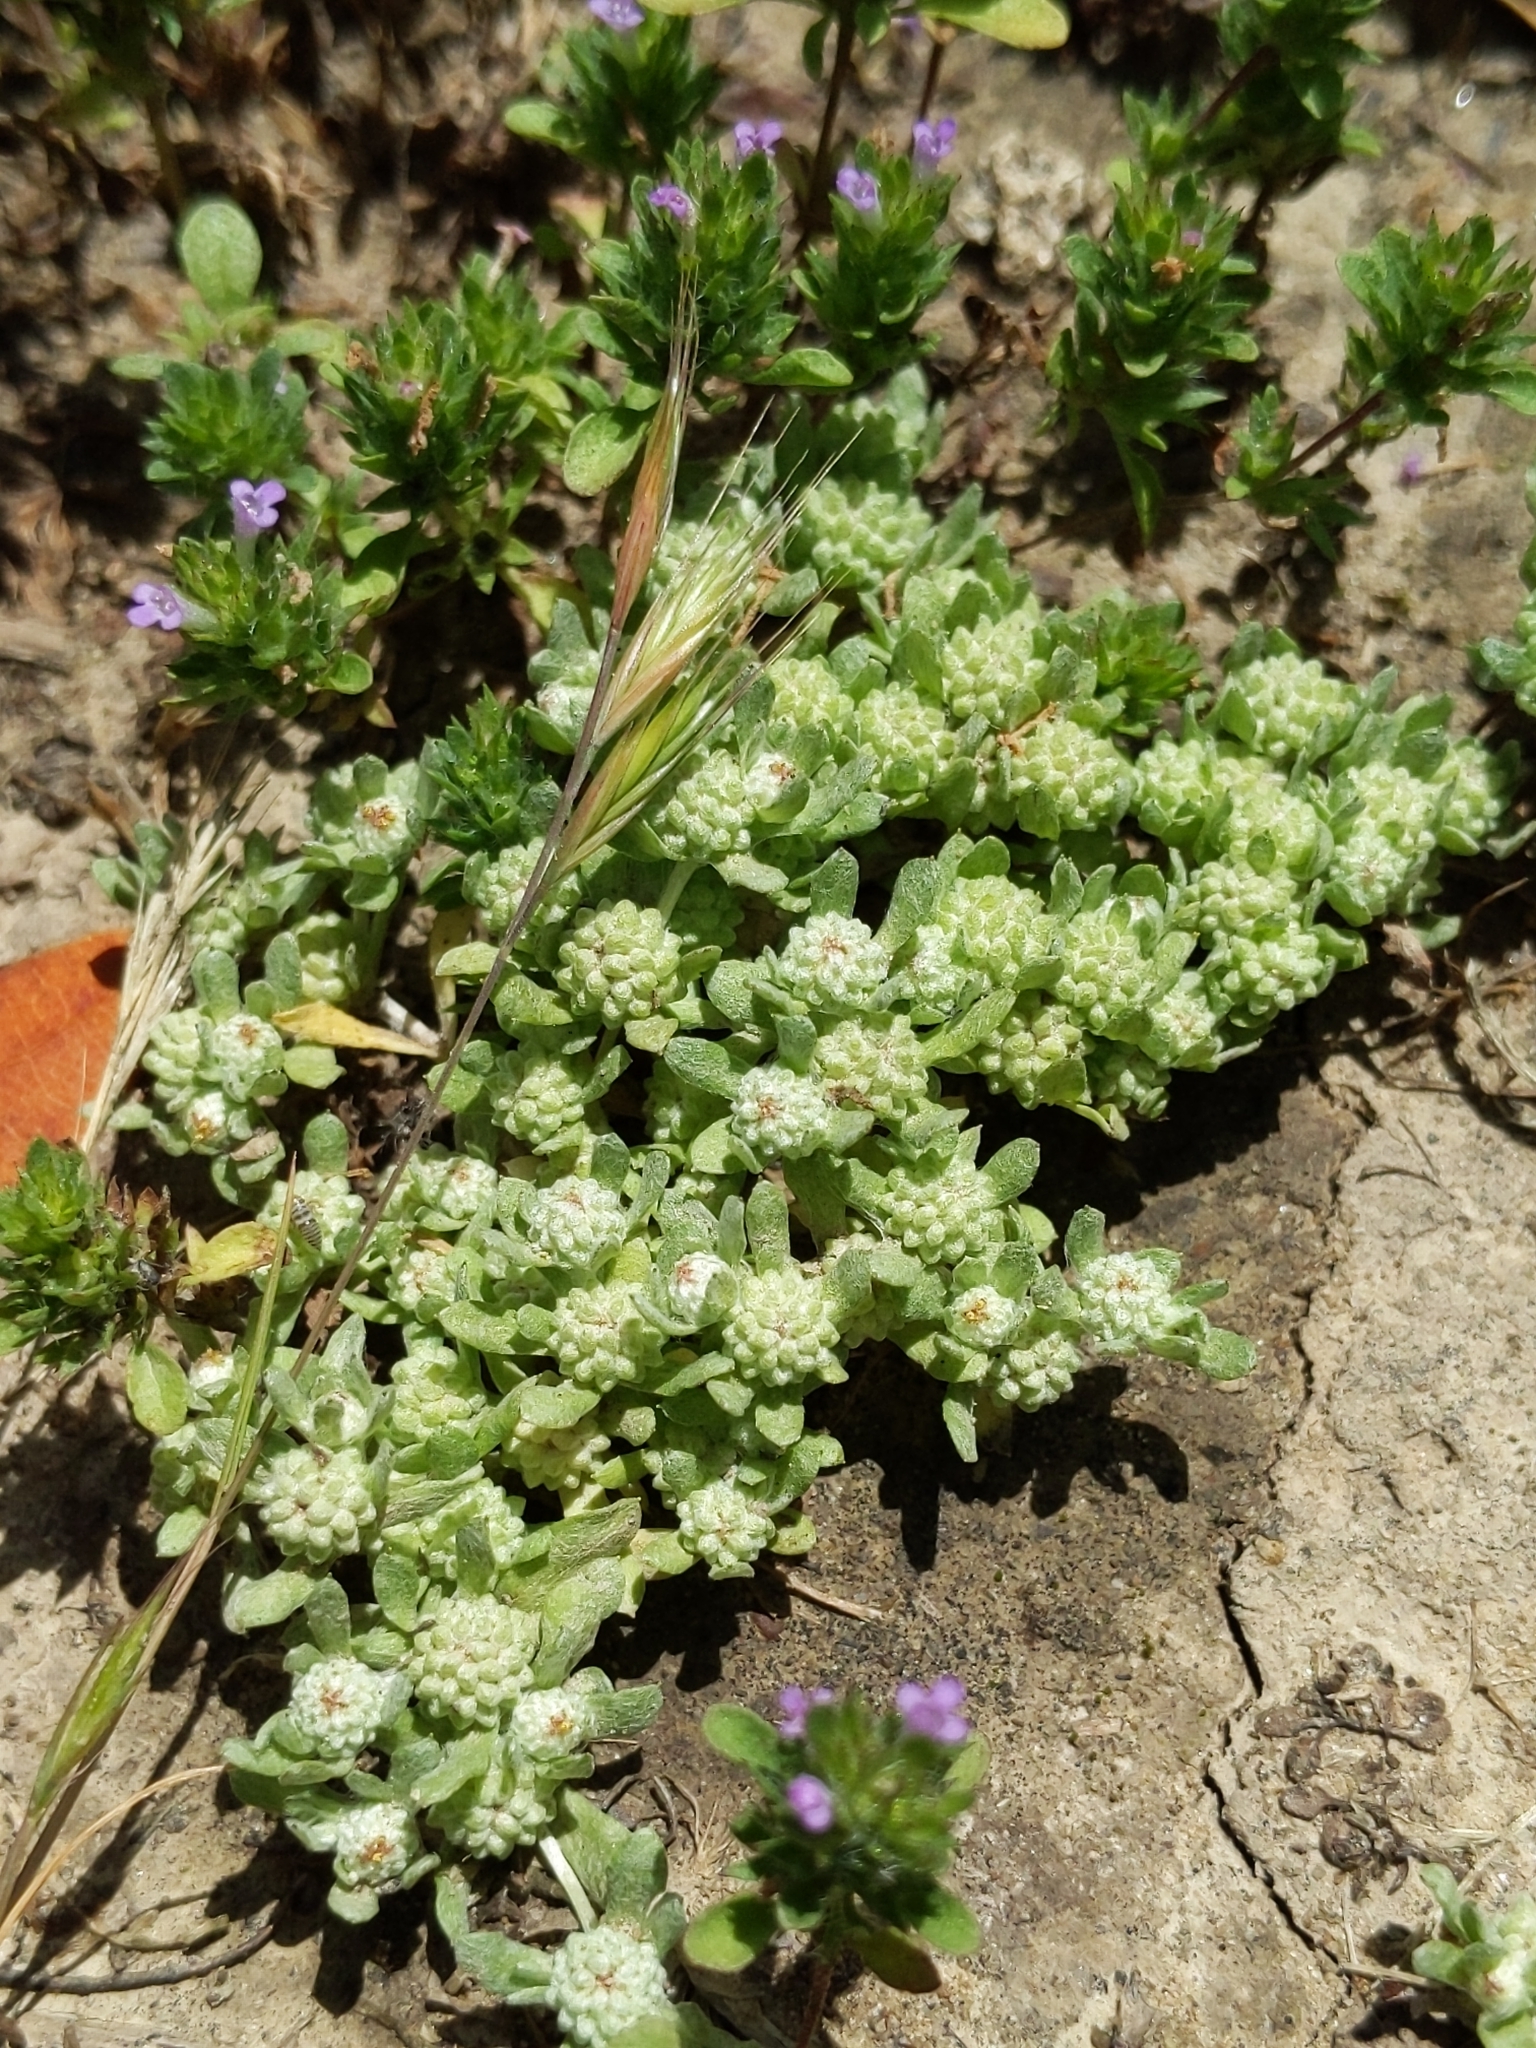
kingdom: Plantae
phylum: Tracheophyta
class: Magnoliopsida
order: Asterales
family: Asteraceae
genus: Psilocarphus
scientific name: Psilocarphus tenellus
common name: Slender woolly-marbles
